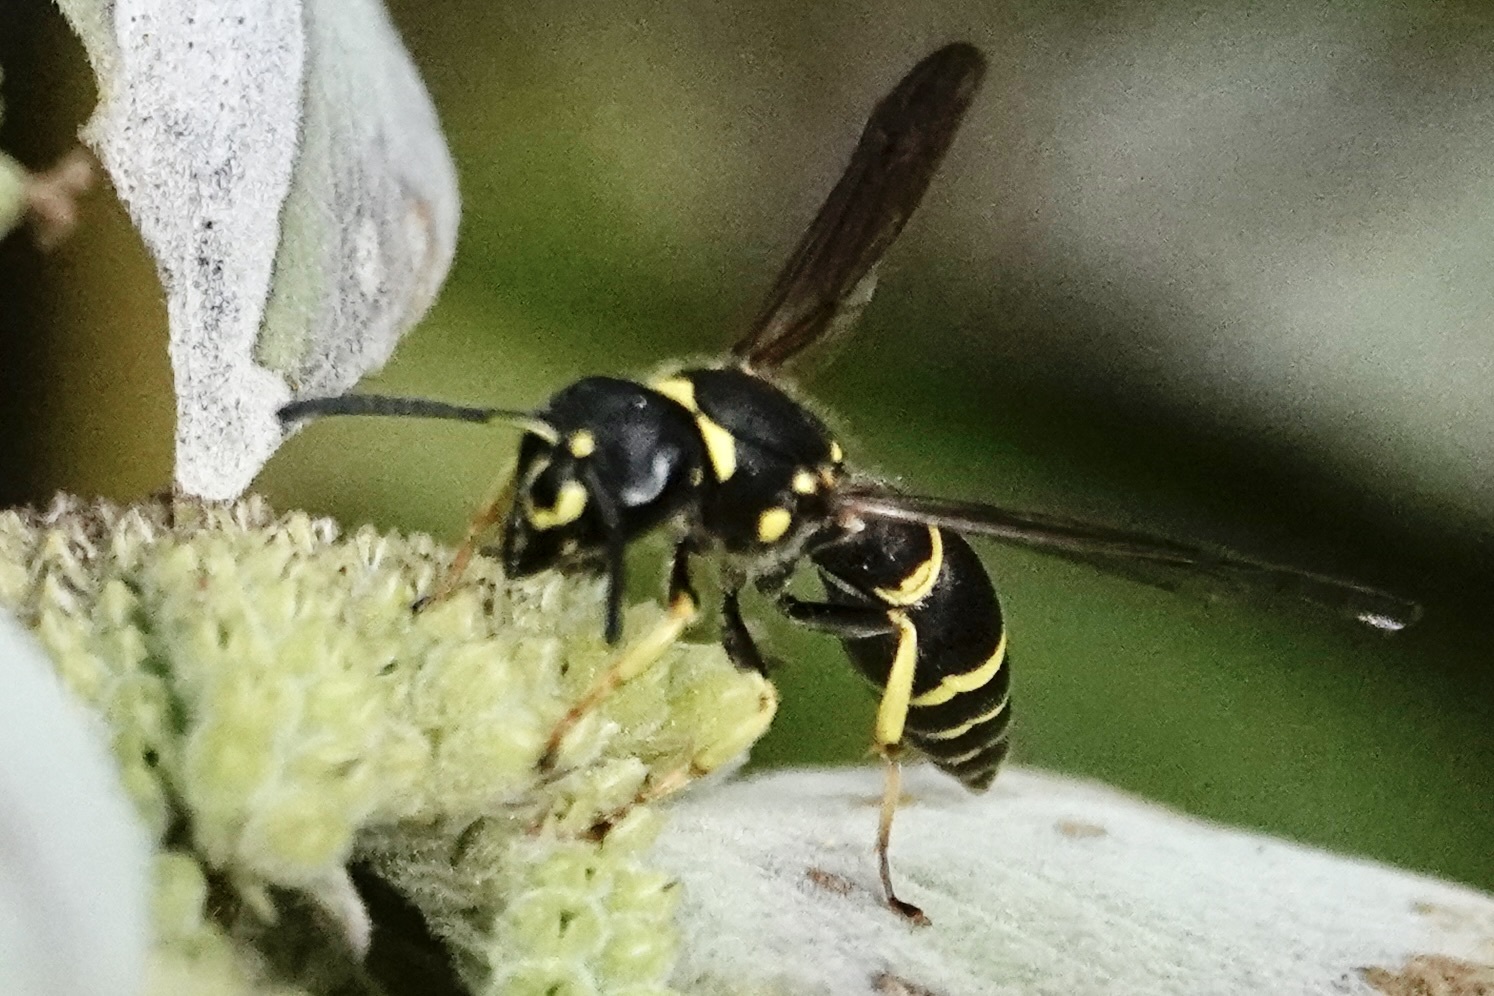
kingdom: Animalia
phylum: Arthropoda
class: Insecta
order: Hymenoptera
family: Vespidae
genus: Ancistrocerus
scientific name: Ancistrocerus adiabatus
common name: Bramble mason wasp
